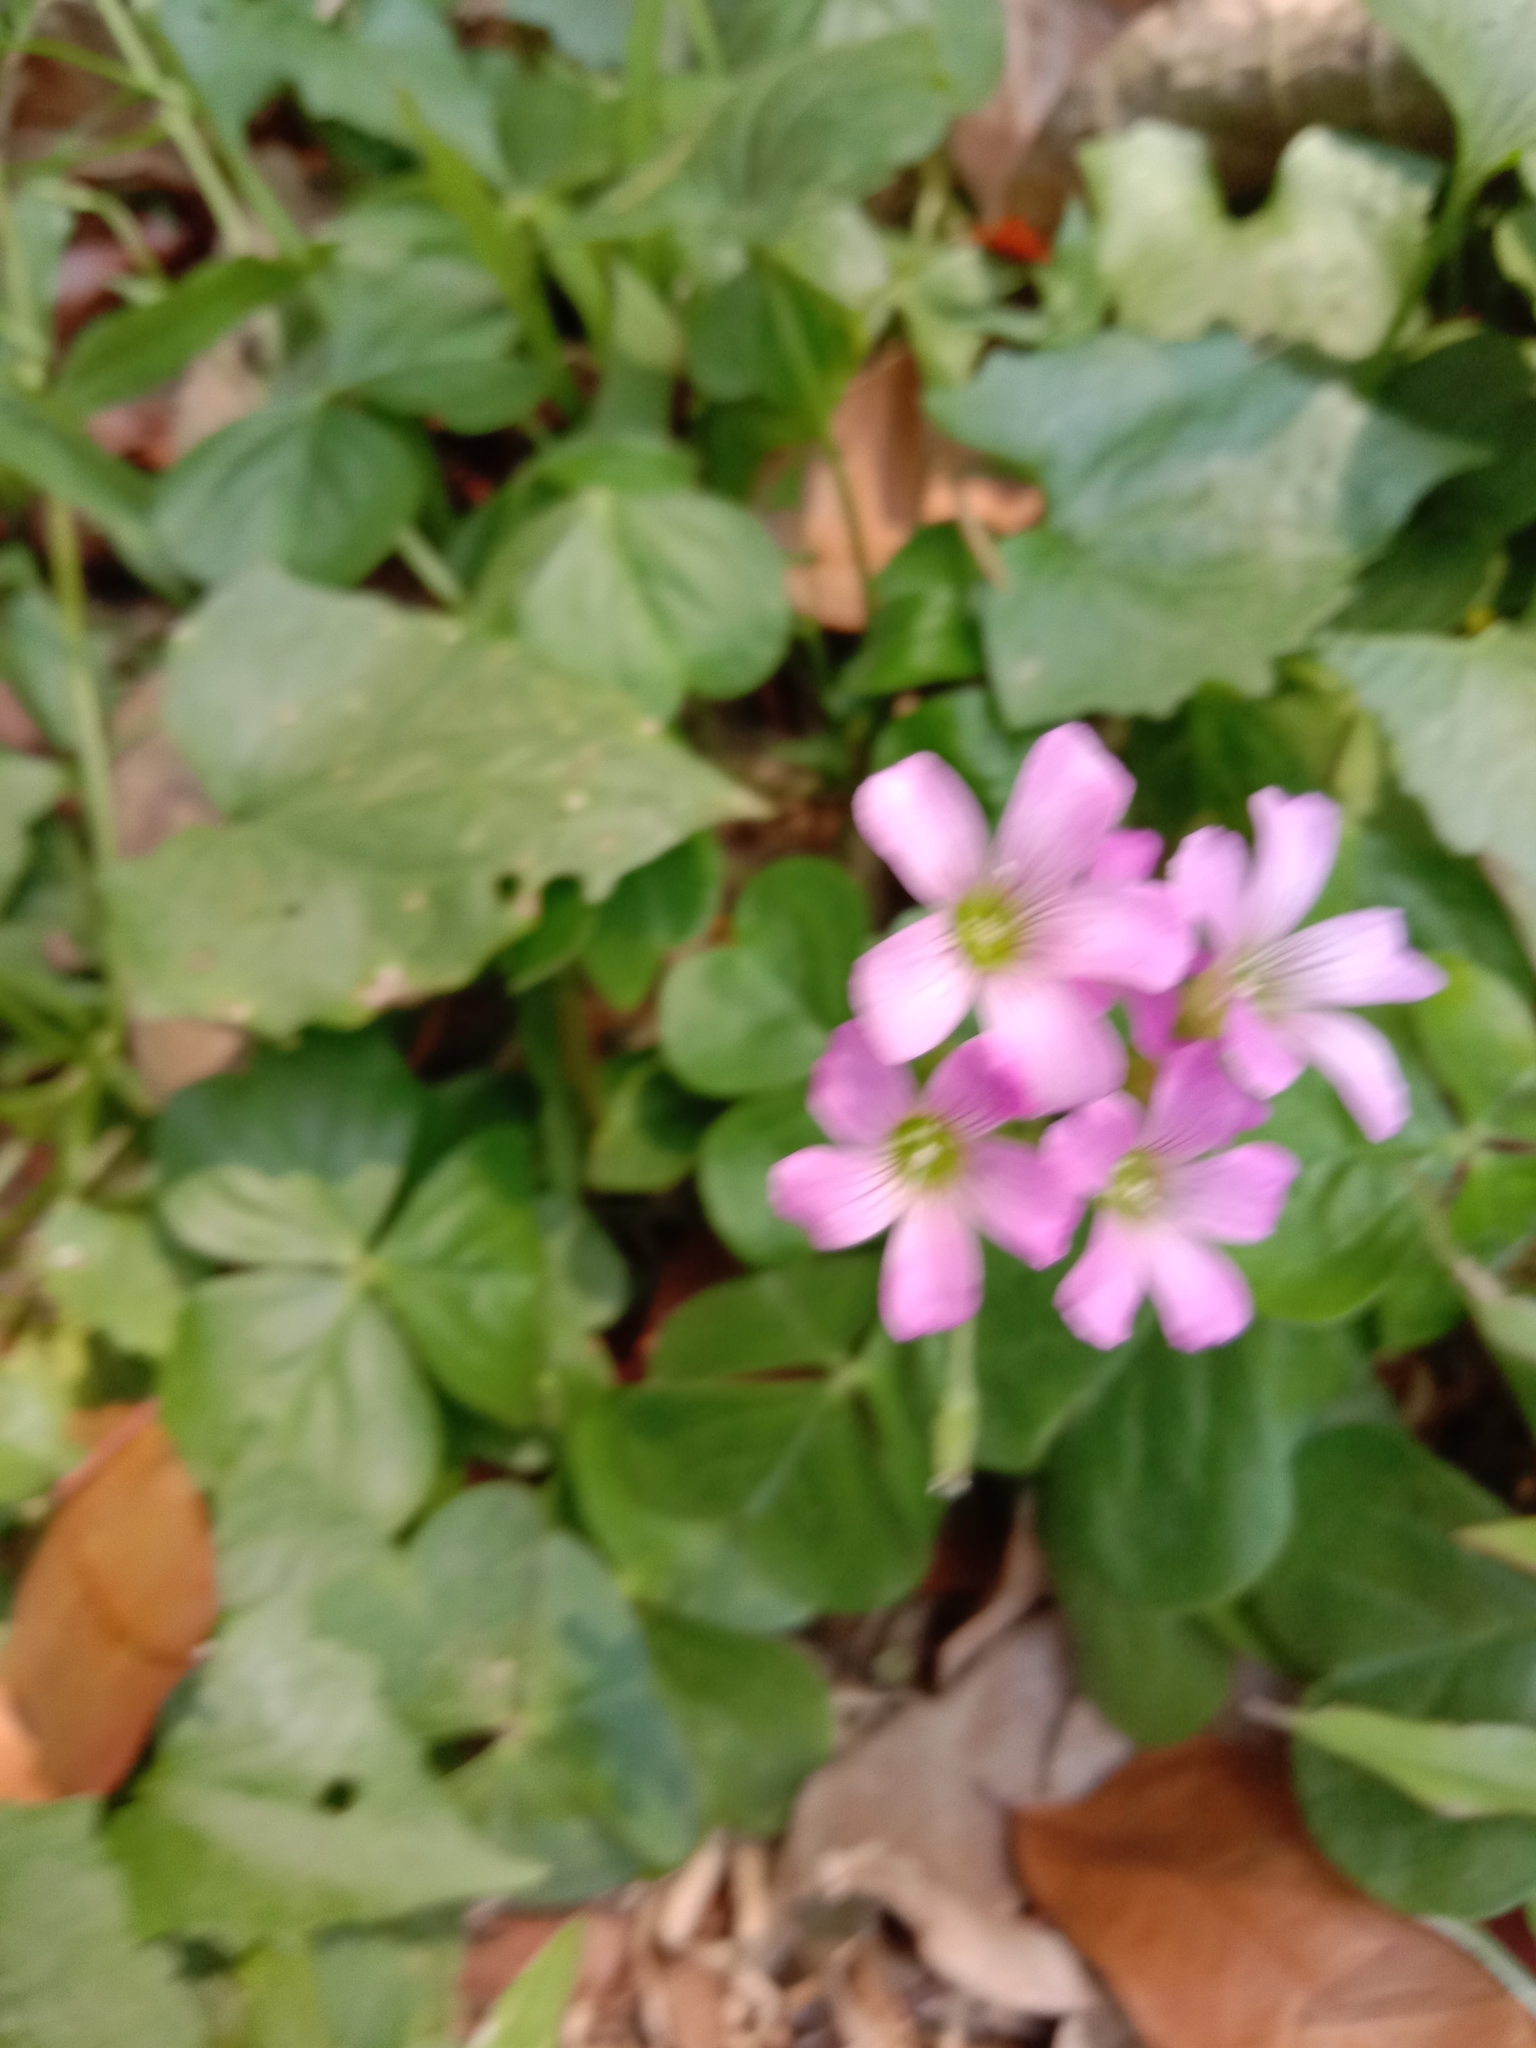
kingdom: Plantae
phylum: Tracheophyta
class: Magnoliopsida
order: Oxalidales
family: Oxalidaceae
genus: Oxalis
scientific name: Oxalis debilis
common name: Large-flowered pink-sorrel
